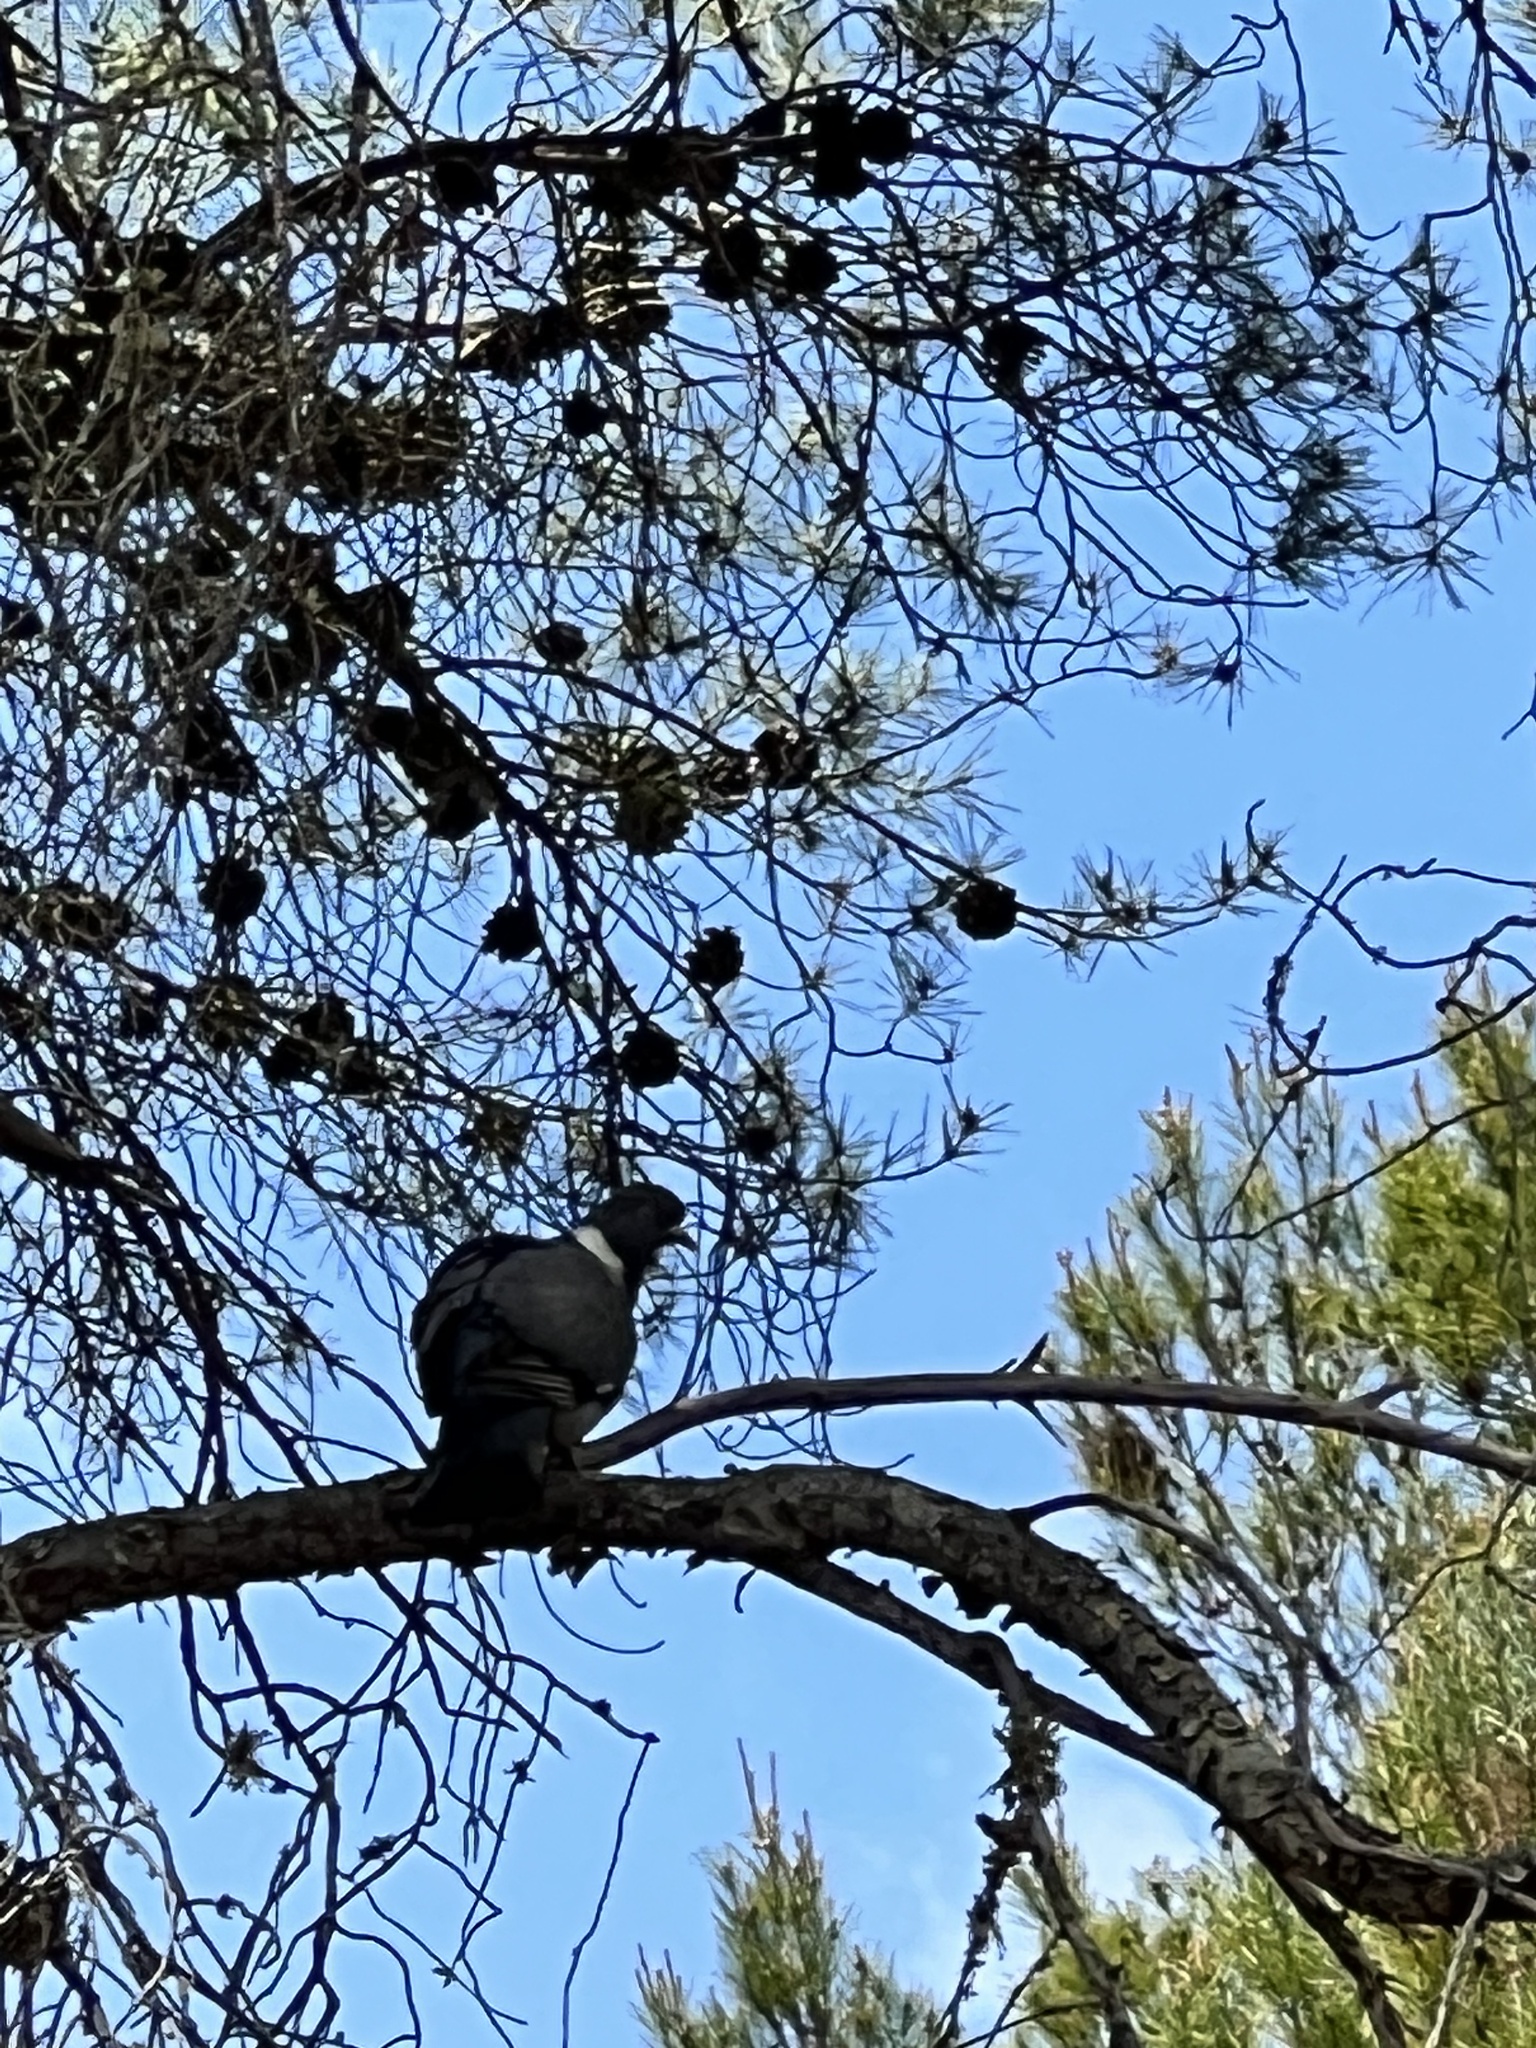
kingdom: Animalia
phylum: Chordata
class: Aves
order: Columbiformes
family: Columbidae
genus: Columba
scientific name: Columba palumbus
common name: Common wood pigeon
